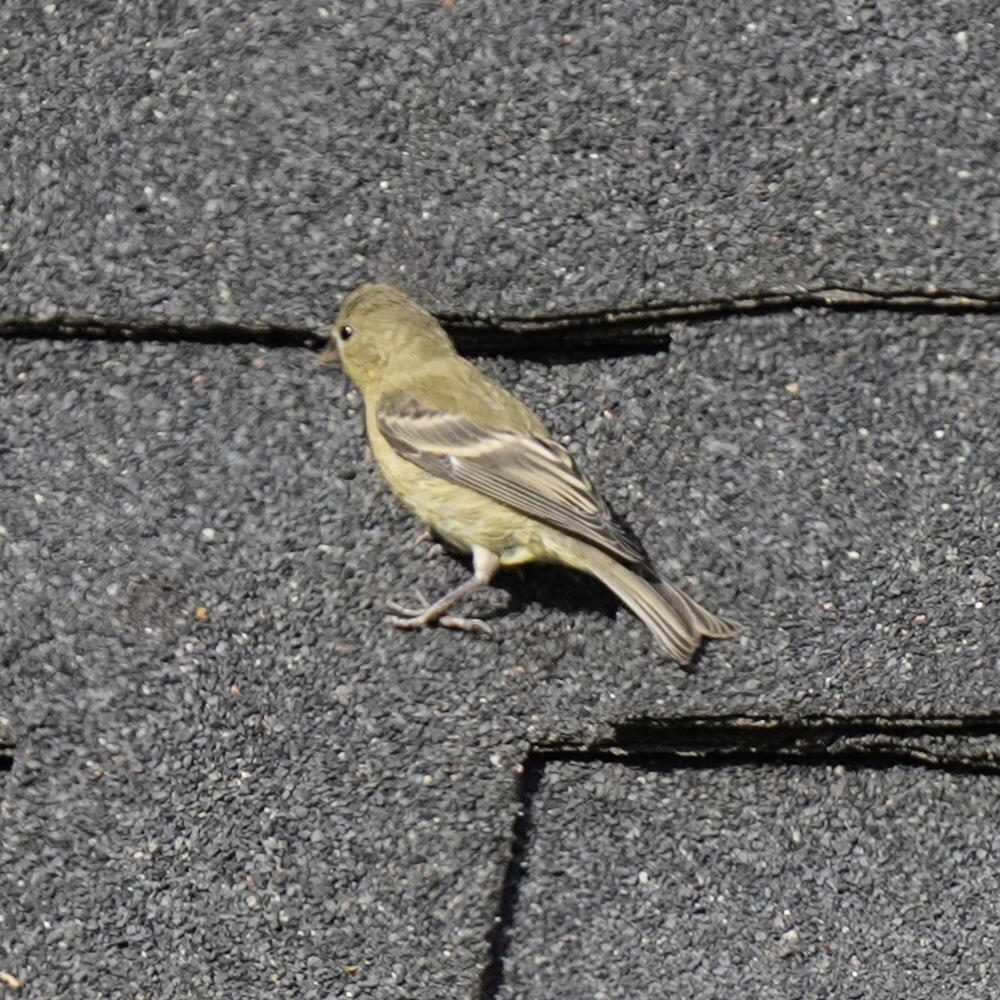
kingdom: Animalia
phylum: Chordata
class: Aves
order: Passeriformes
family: Fringillidae
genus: Spinus
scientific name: Spinus psaltria
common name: Lesser goldfinch
